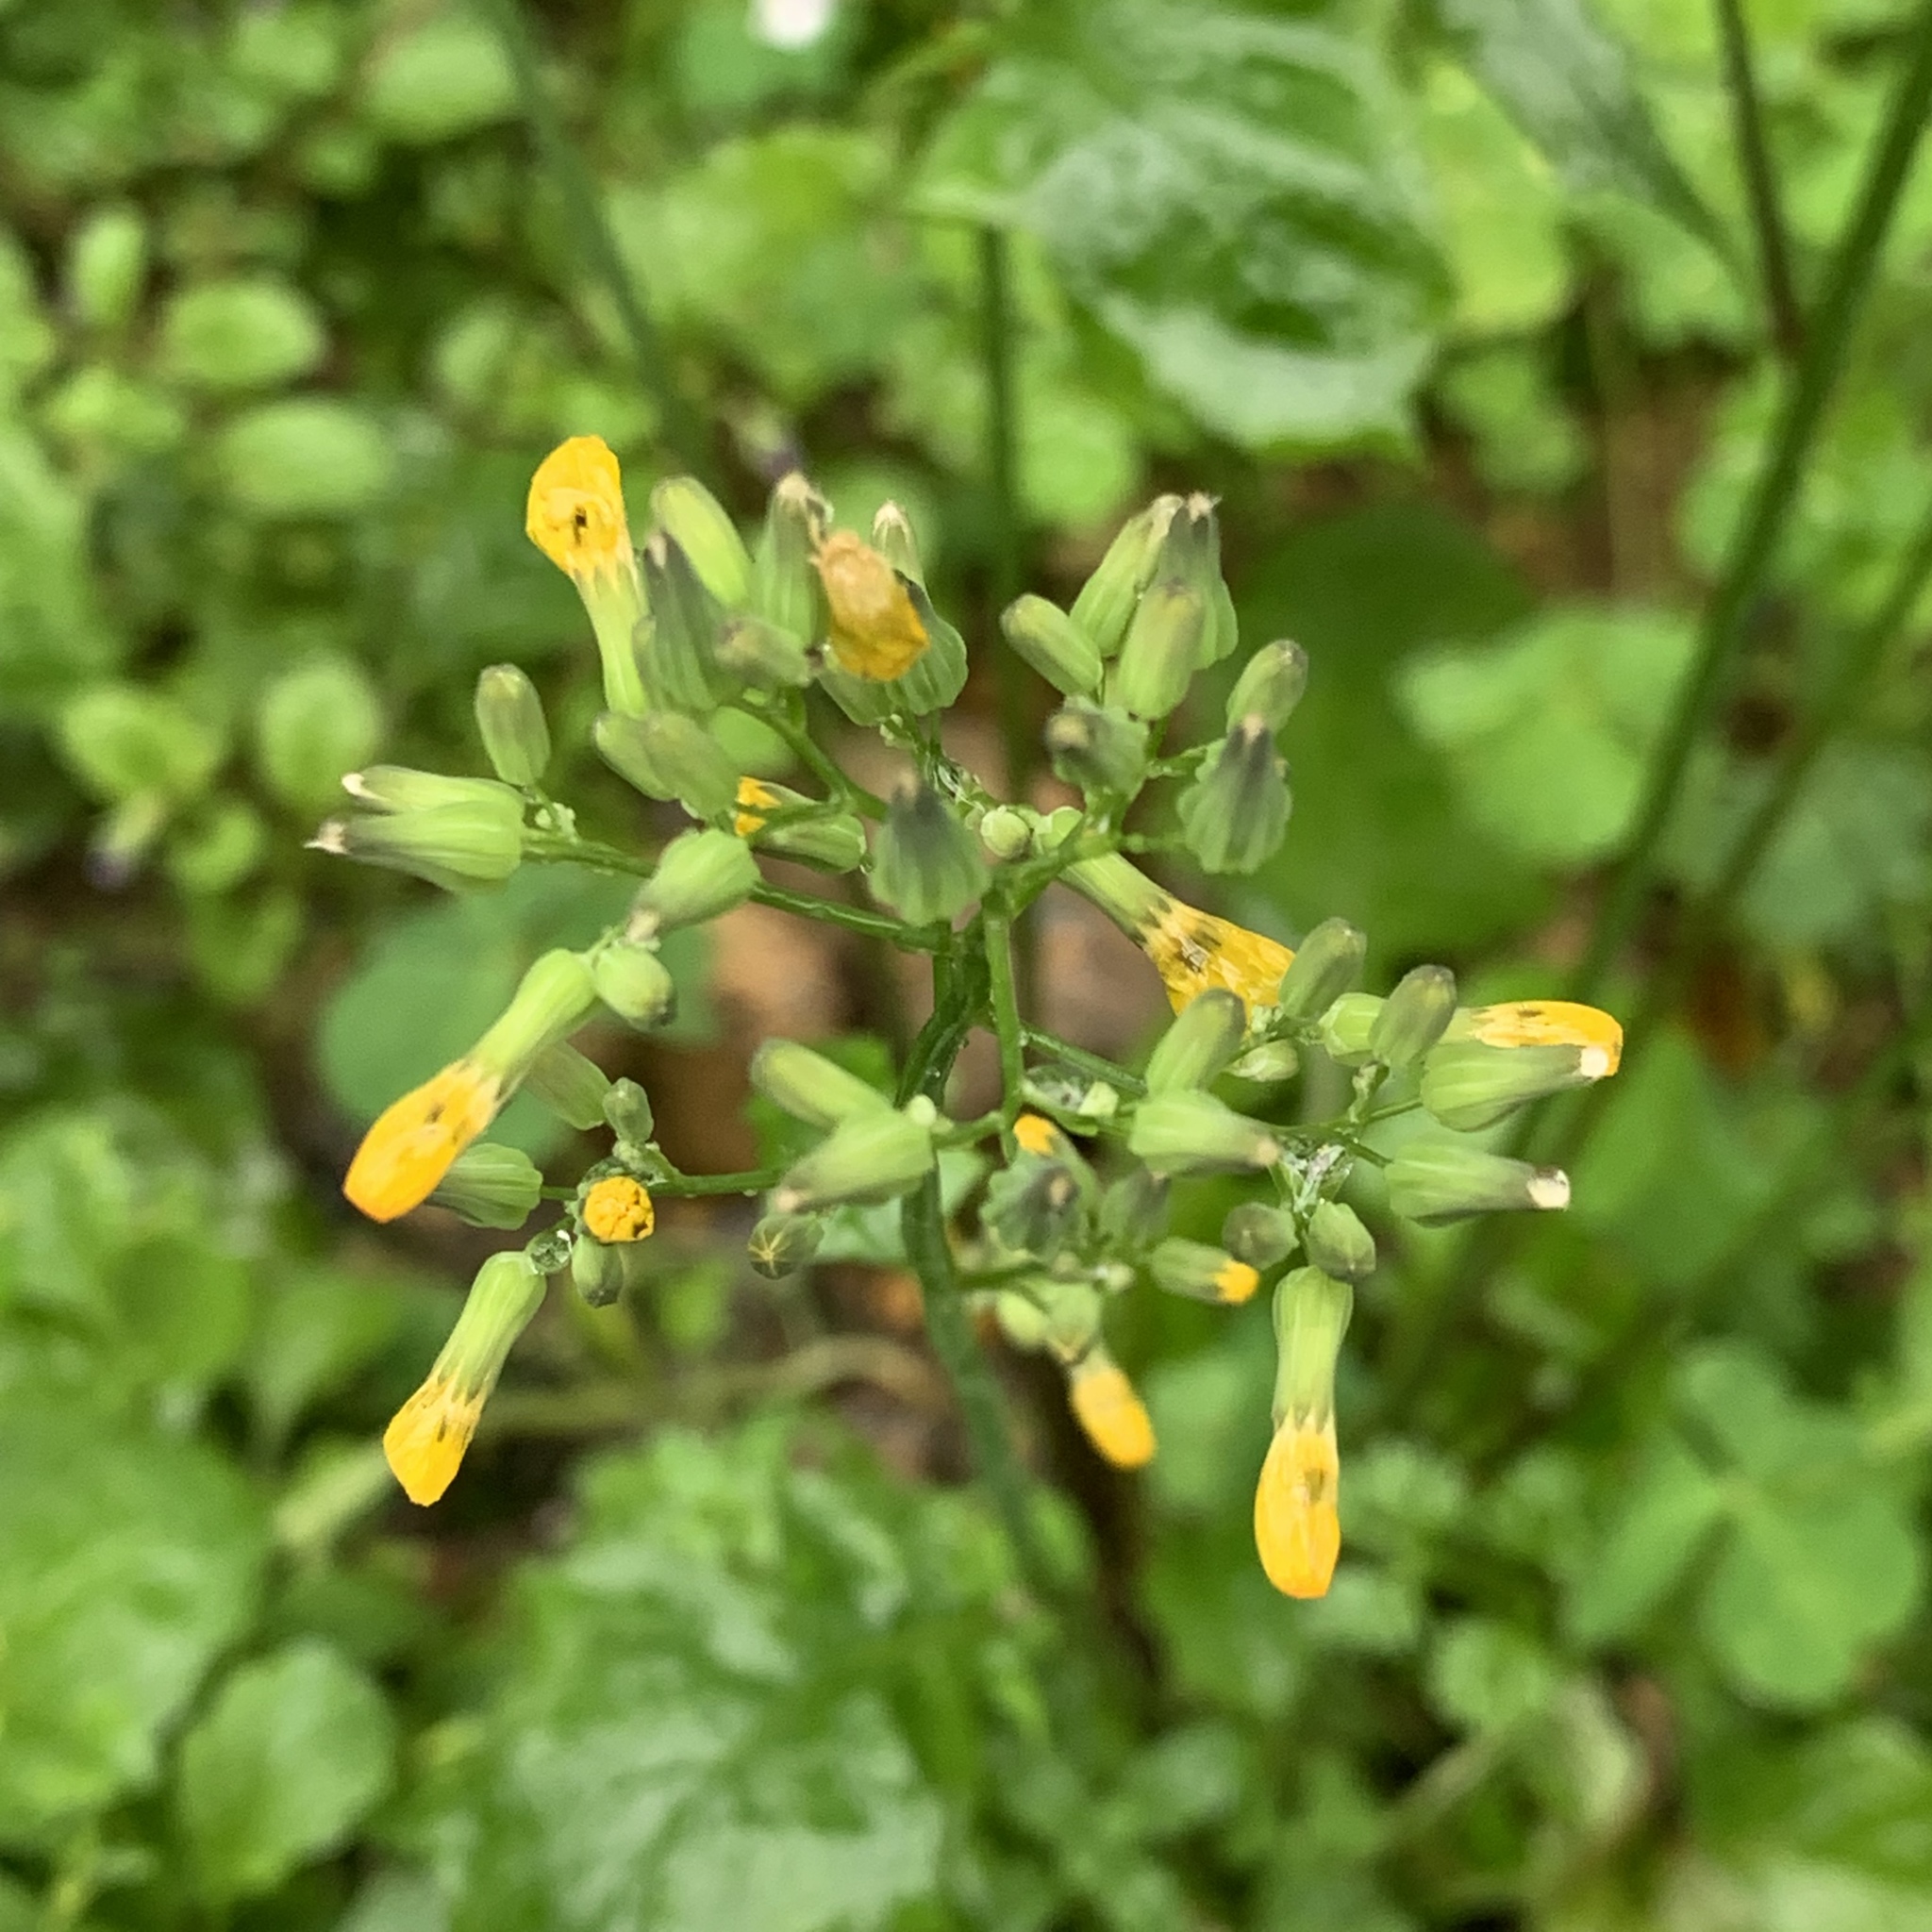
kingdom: Plantae
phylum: Tracheophyta
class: Magnoliopsida
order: Asterales
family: Asteraceae
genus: Youngia
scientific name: Youngia japonica
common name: Oriental false hawksbeard
